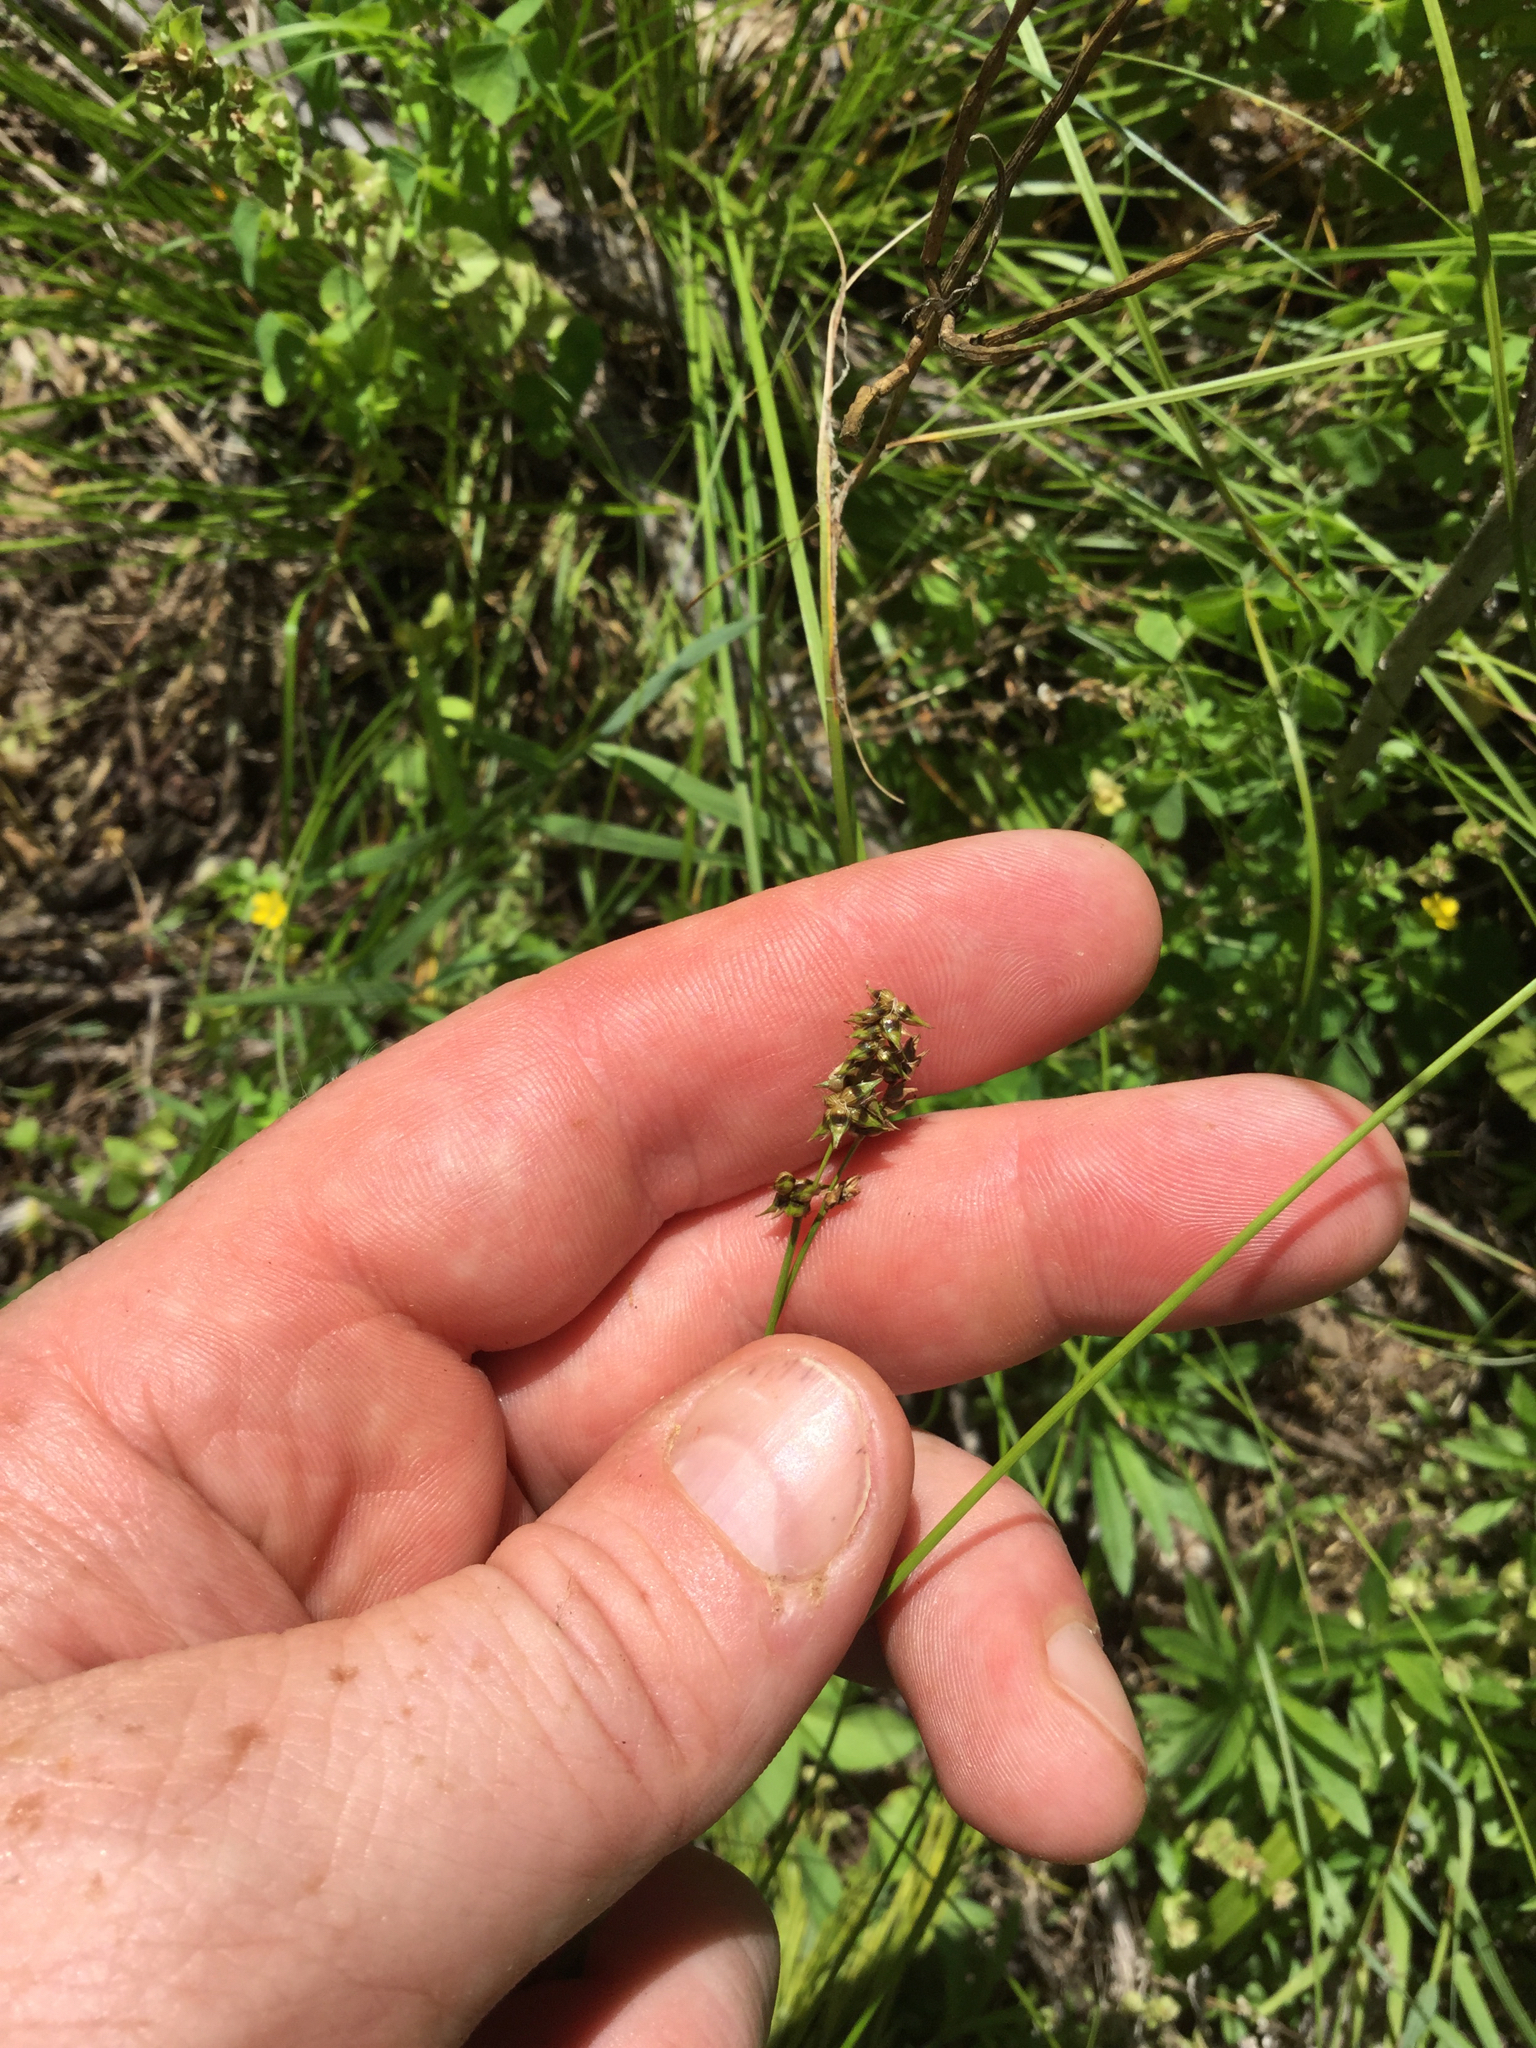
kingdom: Plantae
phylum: Tracheophyta
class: Liliopsida
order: Poales
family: Cyperaceae
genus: Carex
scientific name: Carex retroflexa
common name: Reflexed sedge
